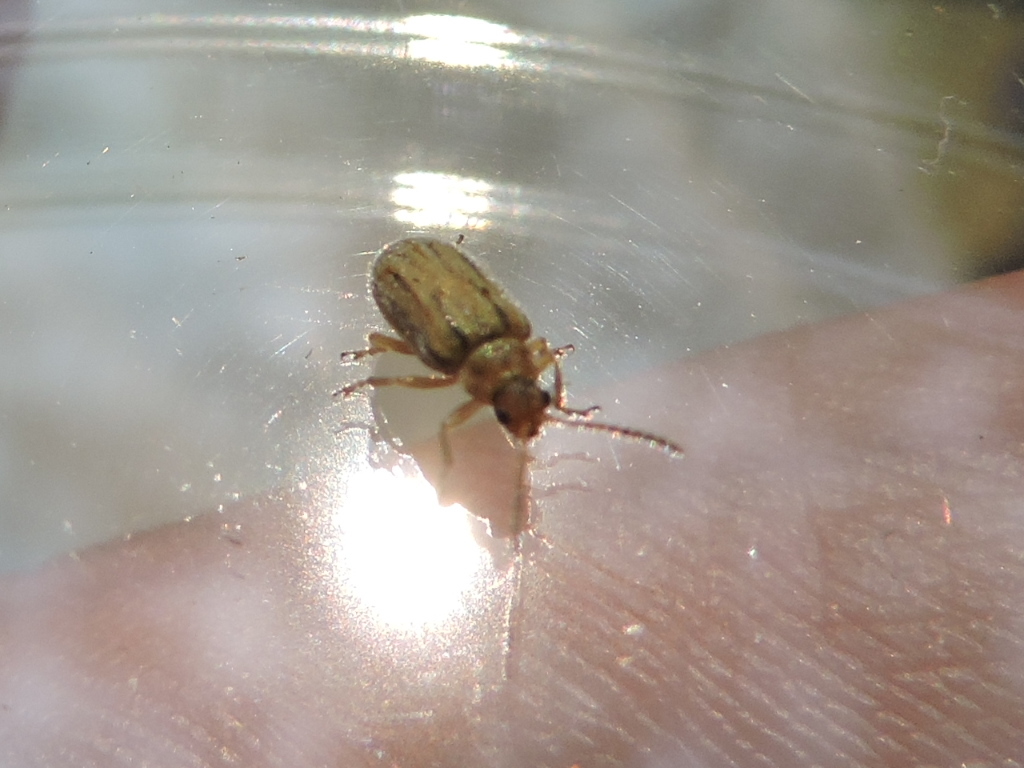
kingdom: Animalia
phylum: Arthropoda
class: Insecta
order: Coleoptera
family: Chrysomelidae
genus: Ophraella
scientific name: Ophraella communa
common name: Ragweed leaf beetle
